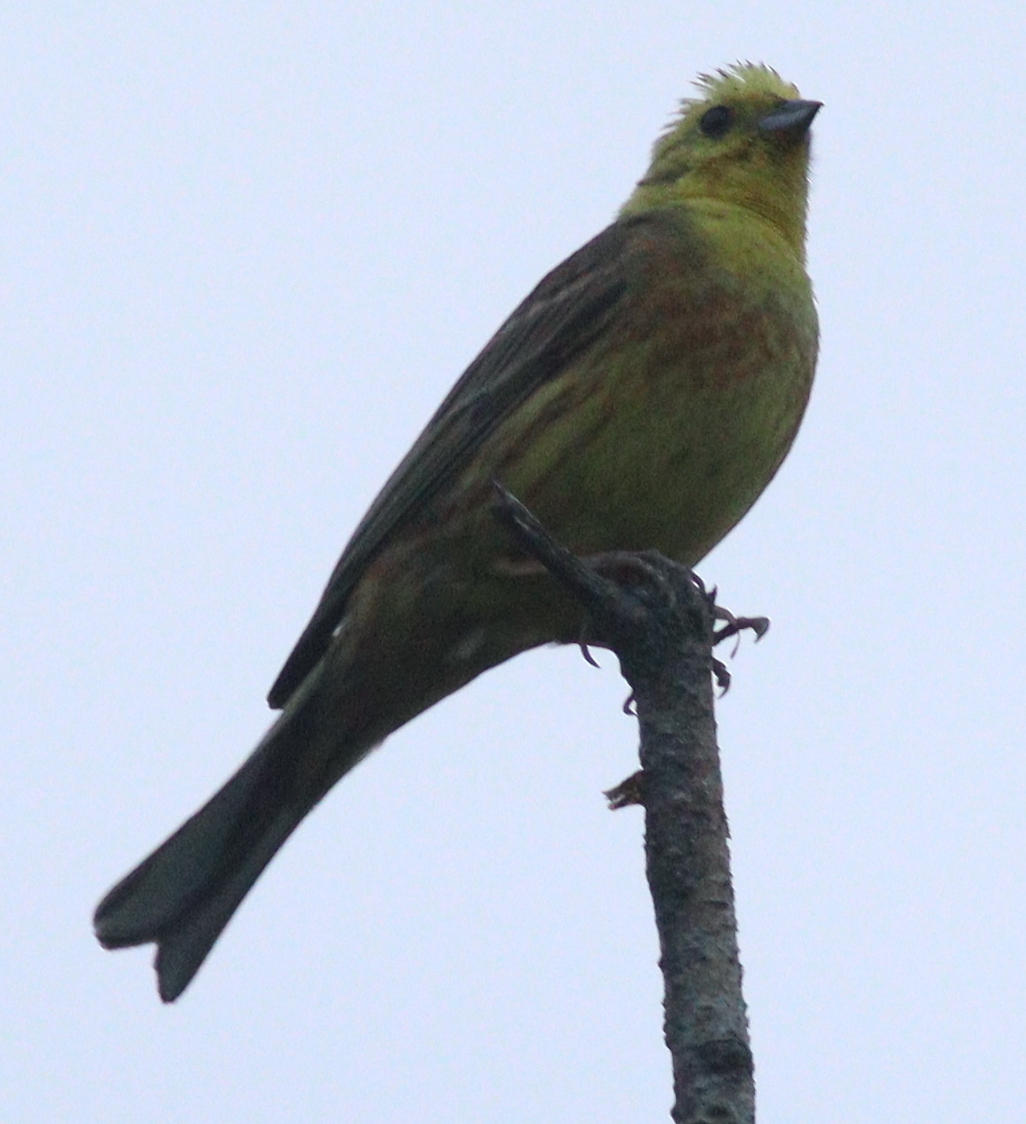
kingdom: Animalia
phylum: Chordata
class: Aves
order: Passeriformes
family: Emberizidae
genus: Emberiza
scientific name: Emberiza citrinella
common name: Yellowhammer
